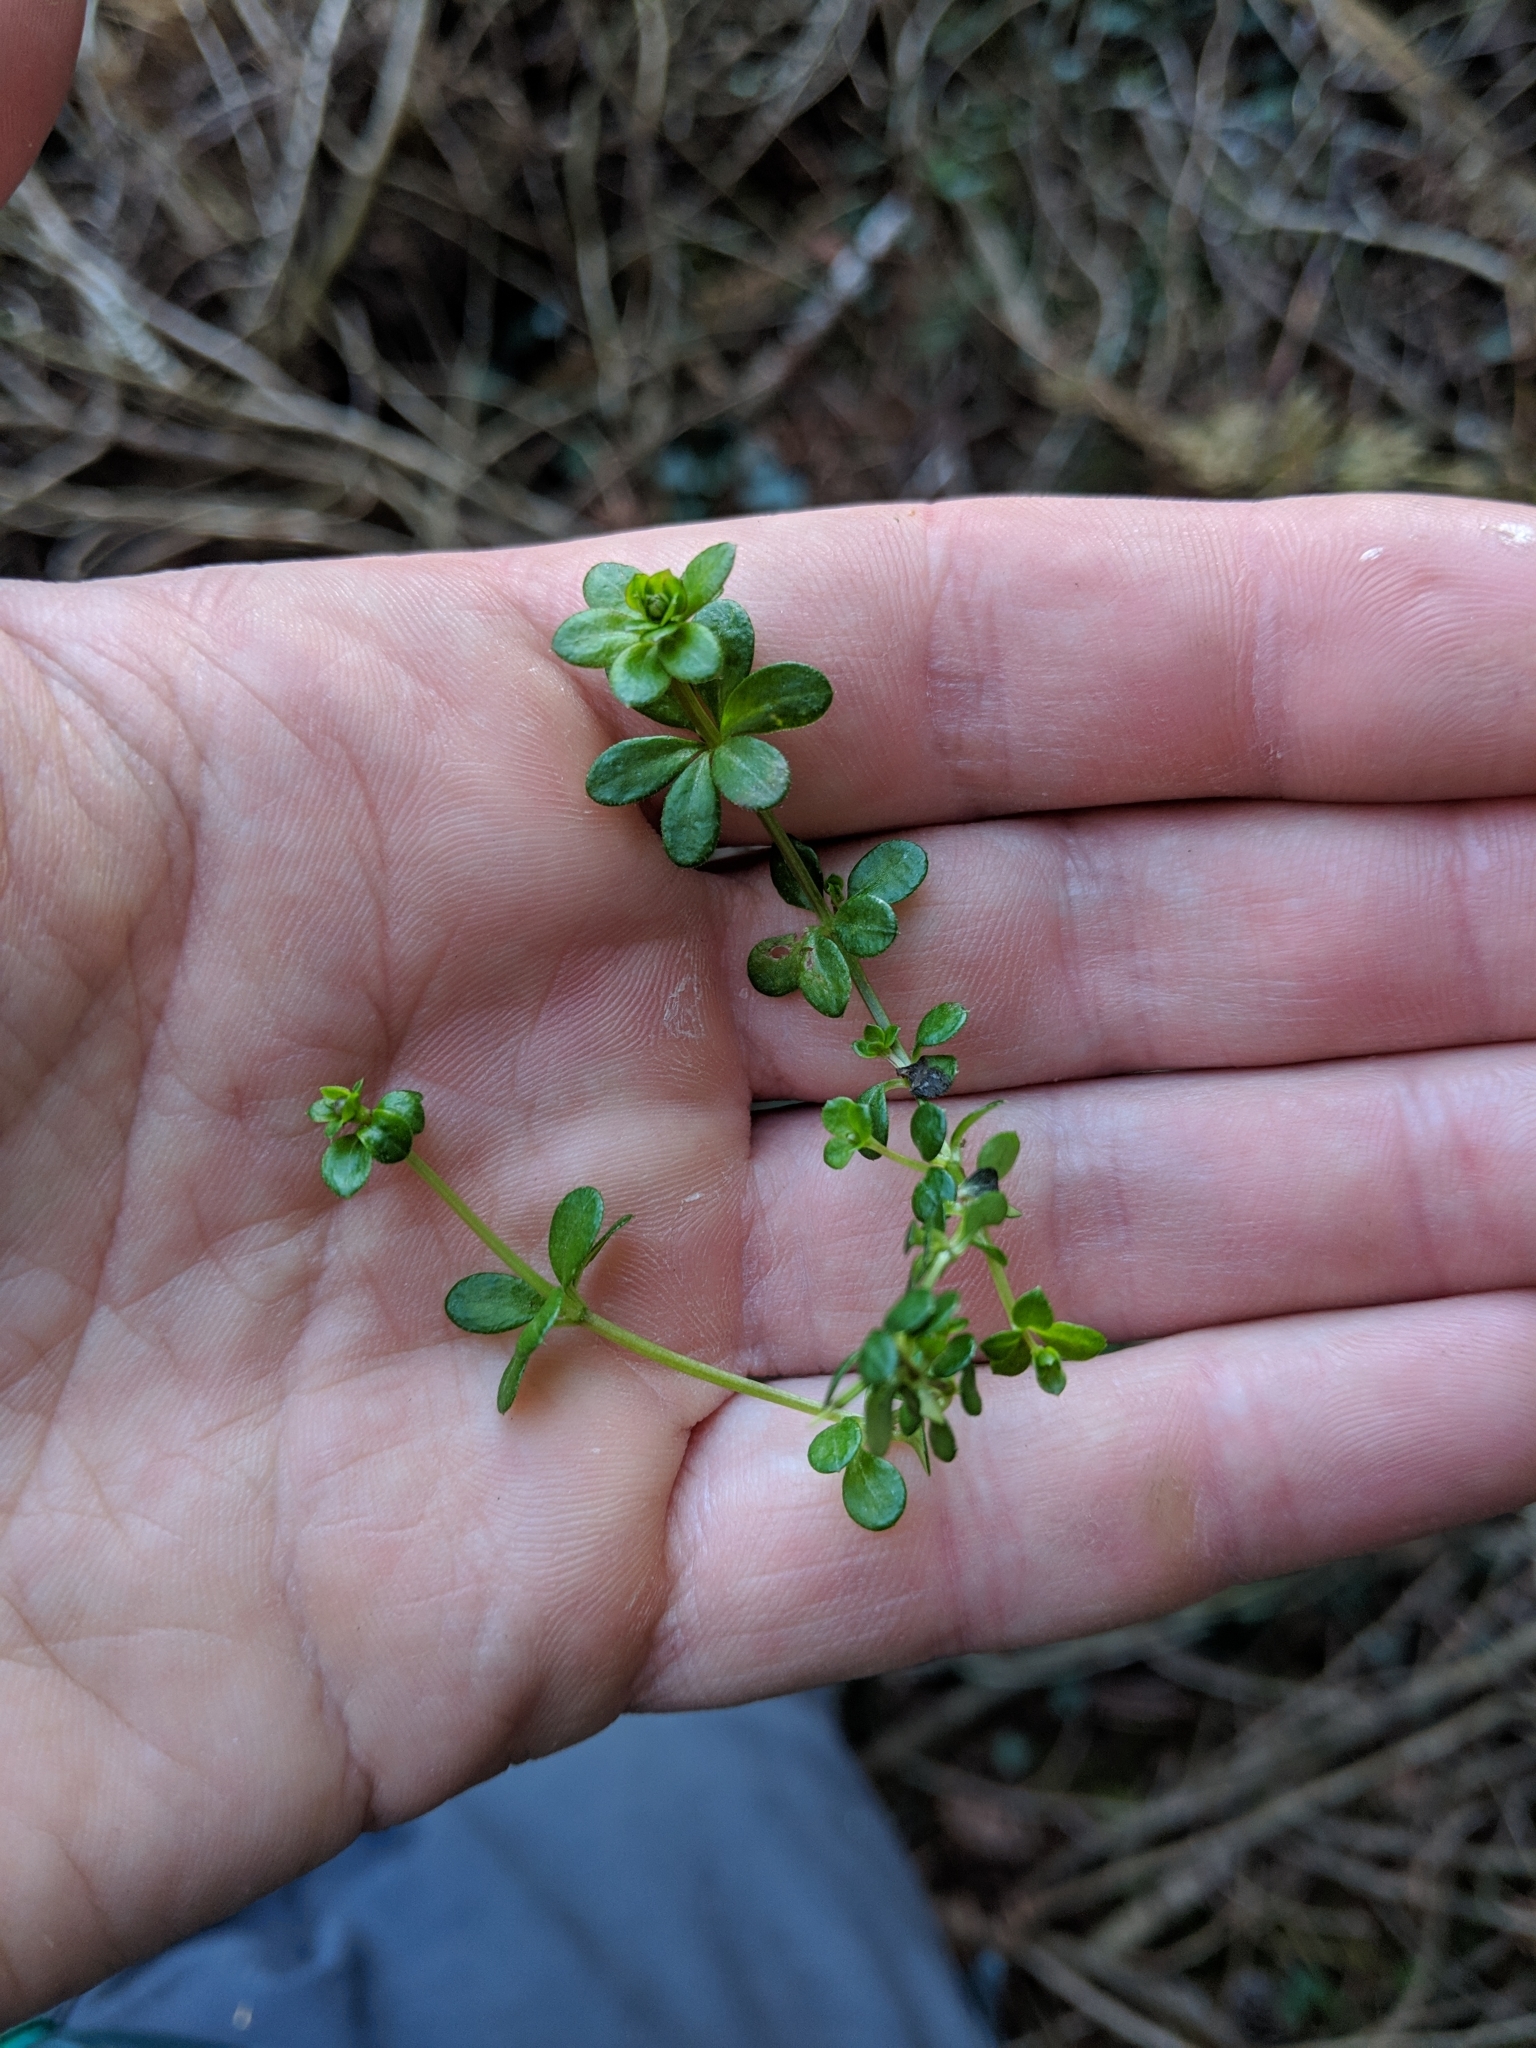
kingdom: Plantae
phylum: Tracheophyta
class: Magnoliopsida
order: Gentianales
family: Rubiaceae
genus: Galium
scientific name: Galium saxatile
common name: Heath bedstraw
